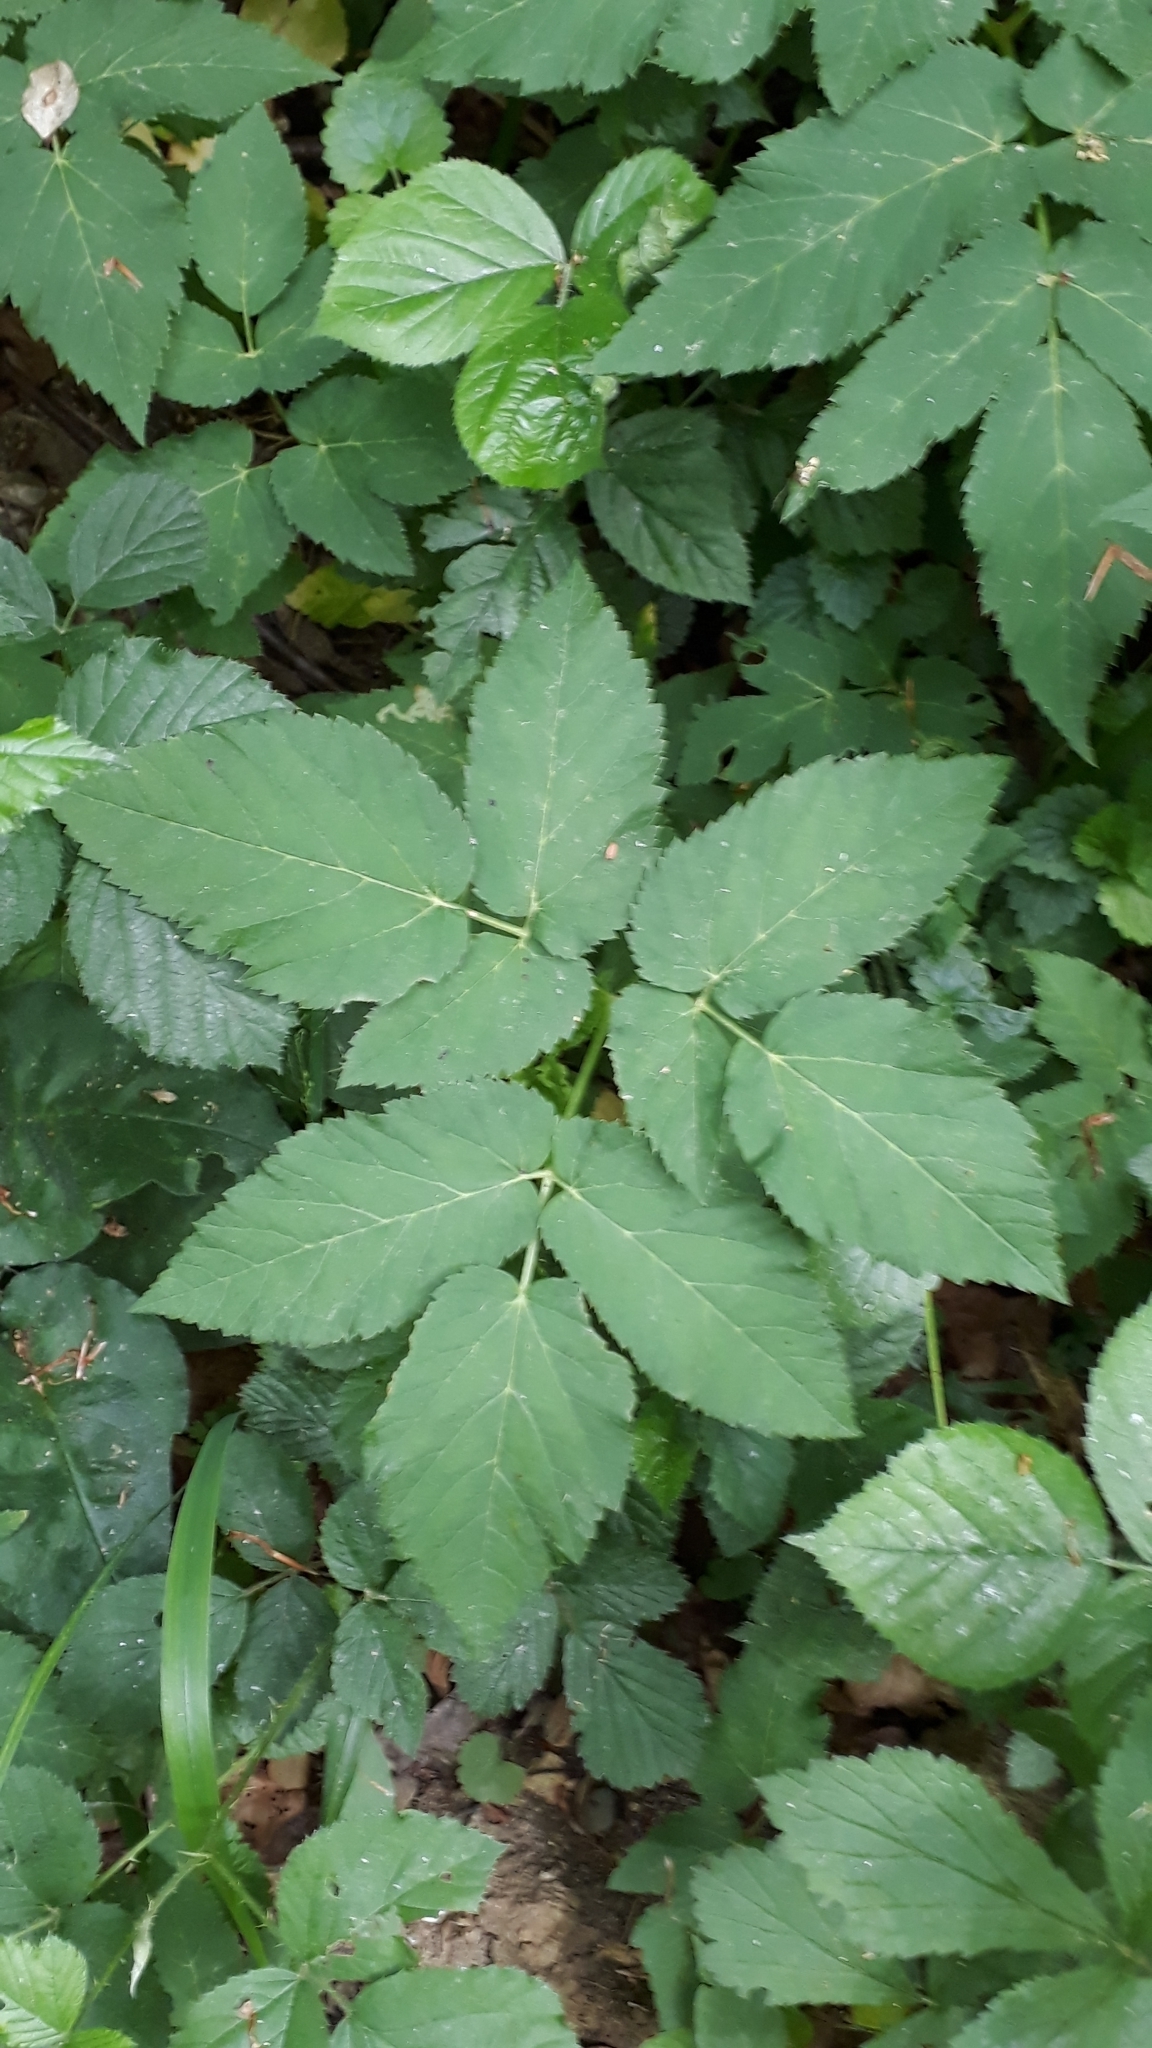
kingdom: Plantae
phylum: Tracheophyta
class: Magnoliopsida
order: Apiales
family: Apiaceae
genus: Aegopodium
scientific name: Aegopodium podagraria
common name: Ground-elder
